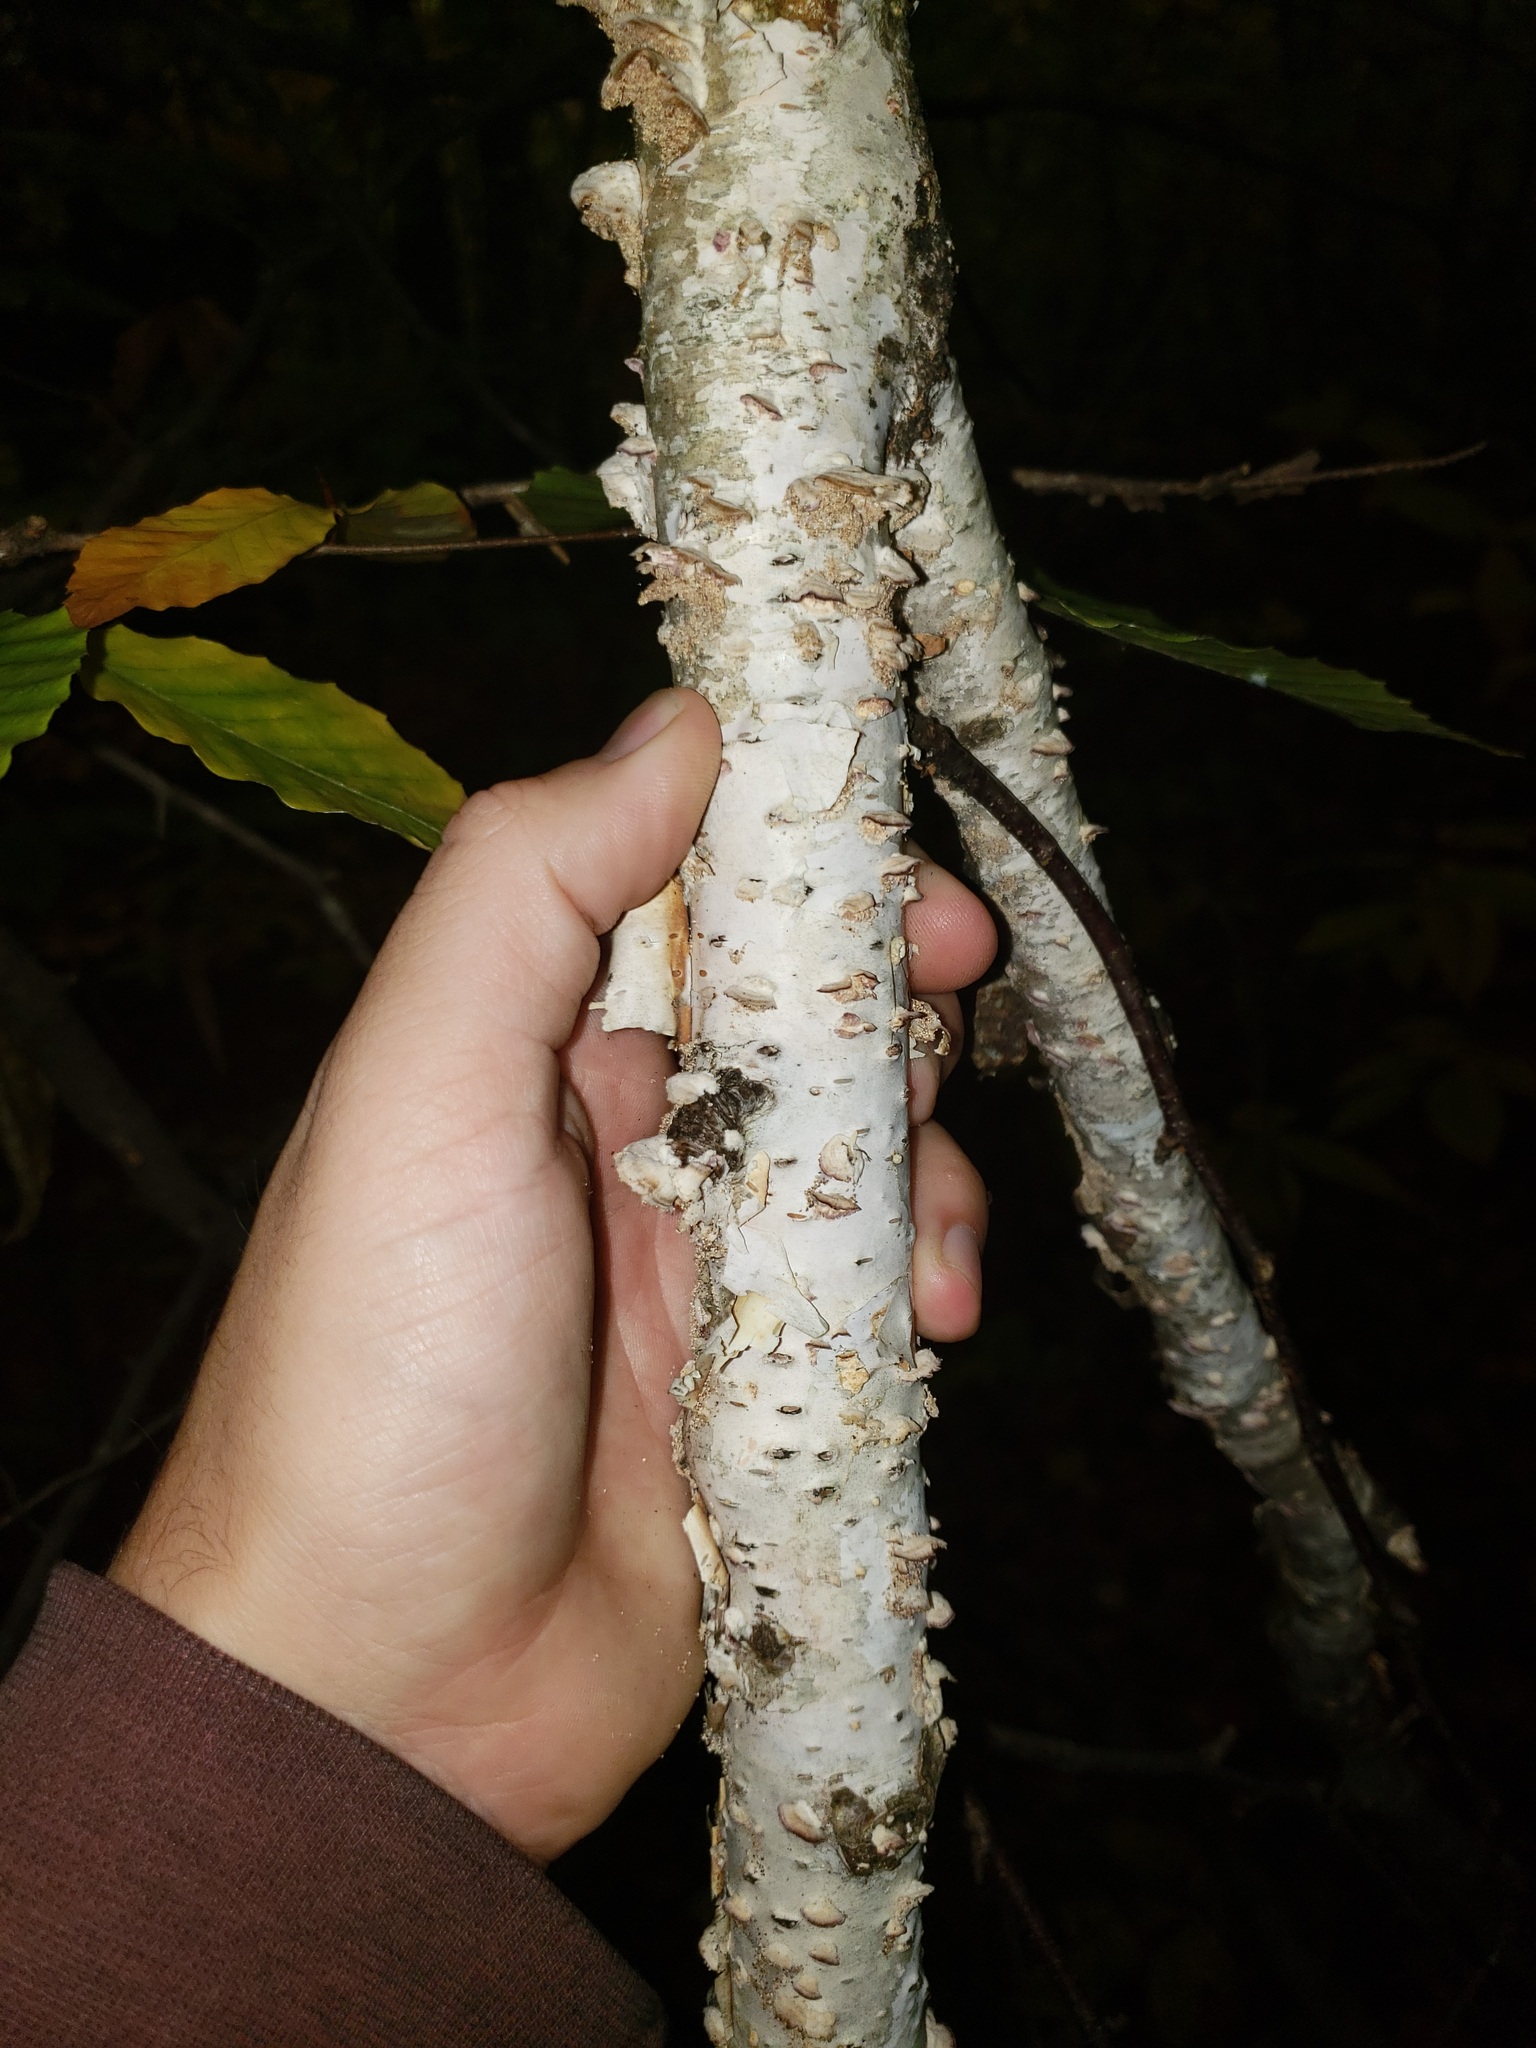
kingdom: Plantae
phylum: Tracheophyta
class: Magnoliopsida
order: Fagales
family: Betulaceae
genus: Betula
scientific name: Betula papyrifera
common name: Paper birch
